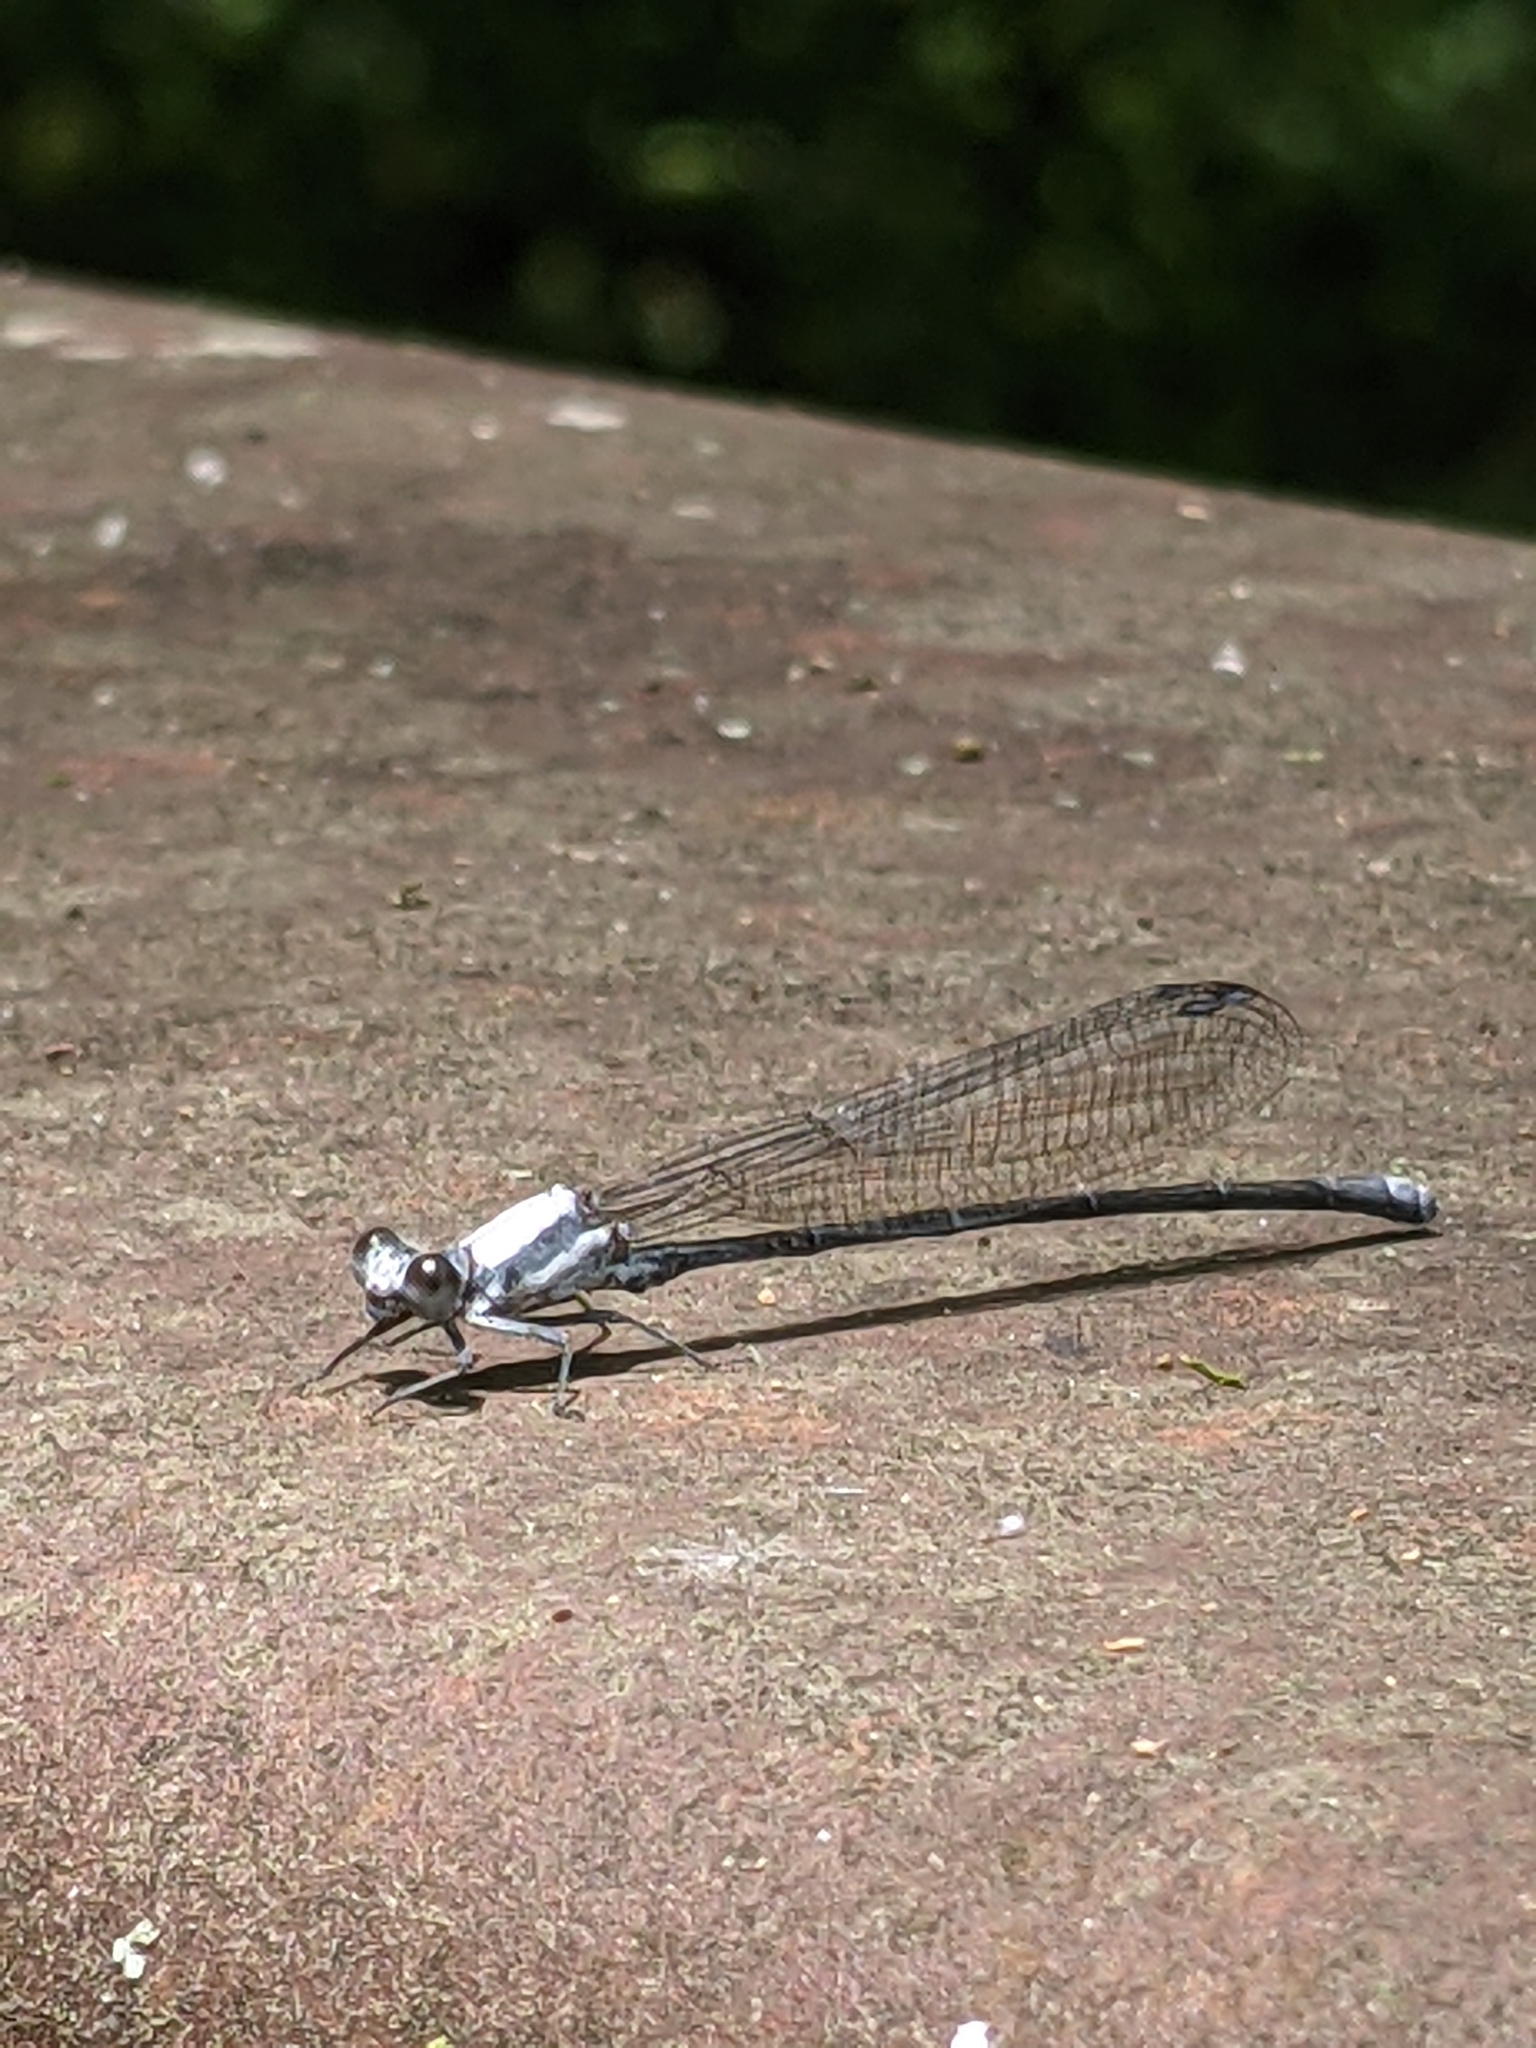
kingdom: Animalia
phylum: Arthropoda
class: Insecta
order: Odonata
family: Coenagrionidae
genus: Argia
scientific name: Argia moesta
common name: Powdered dancer
